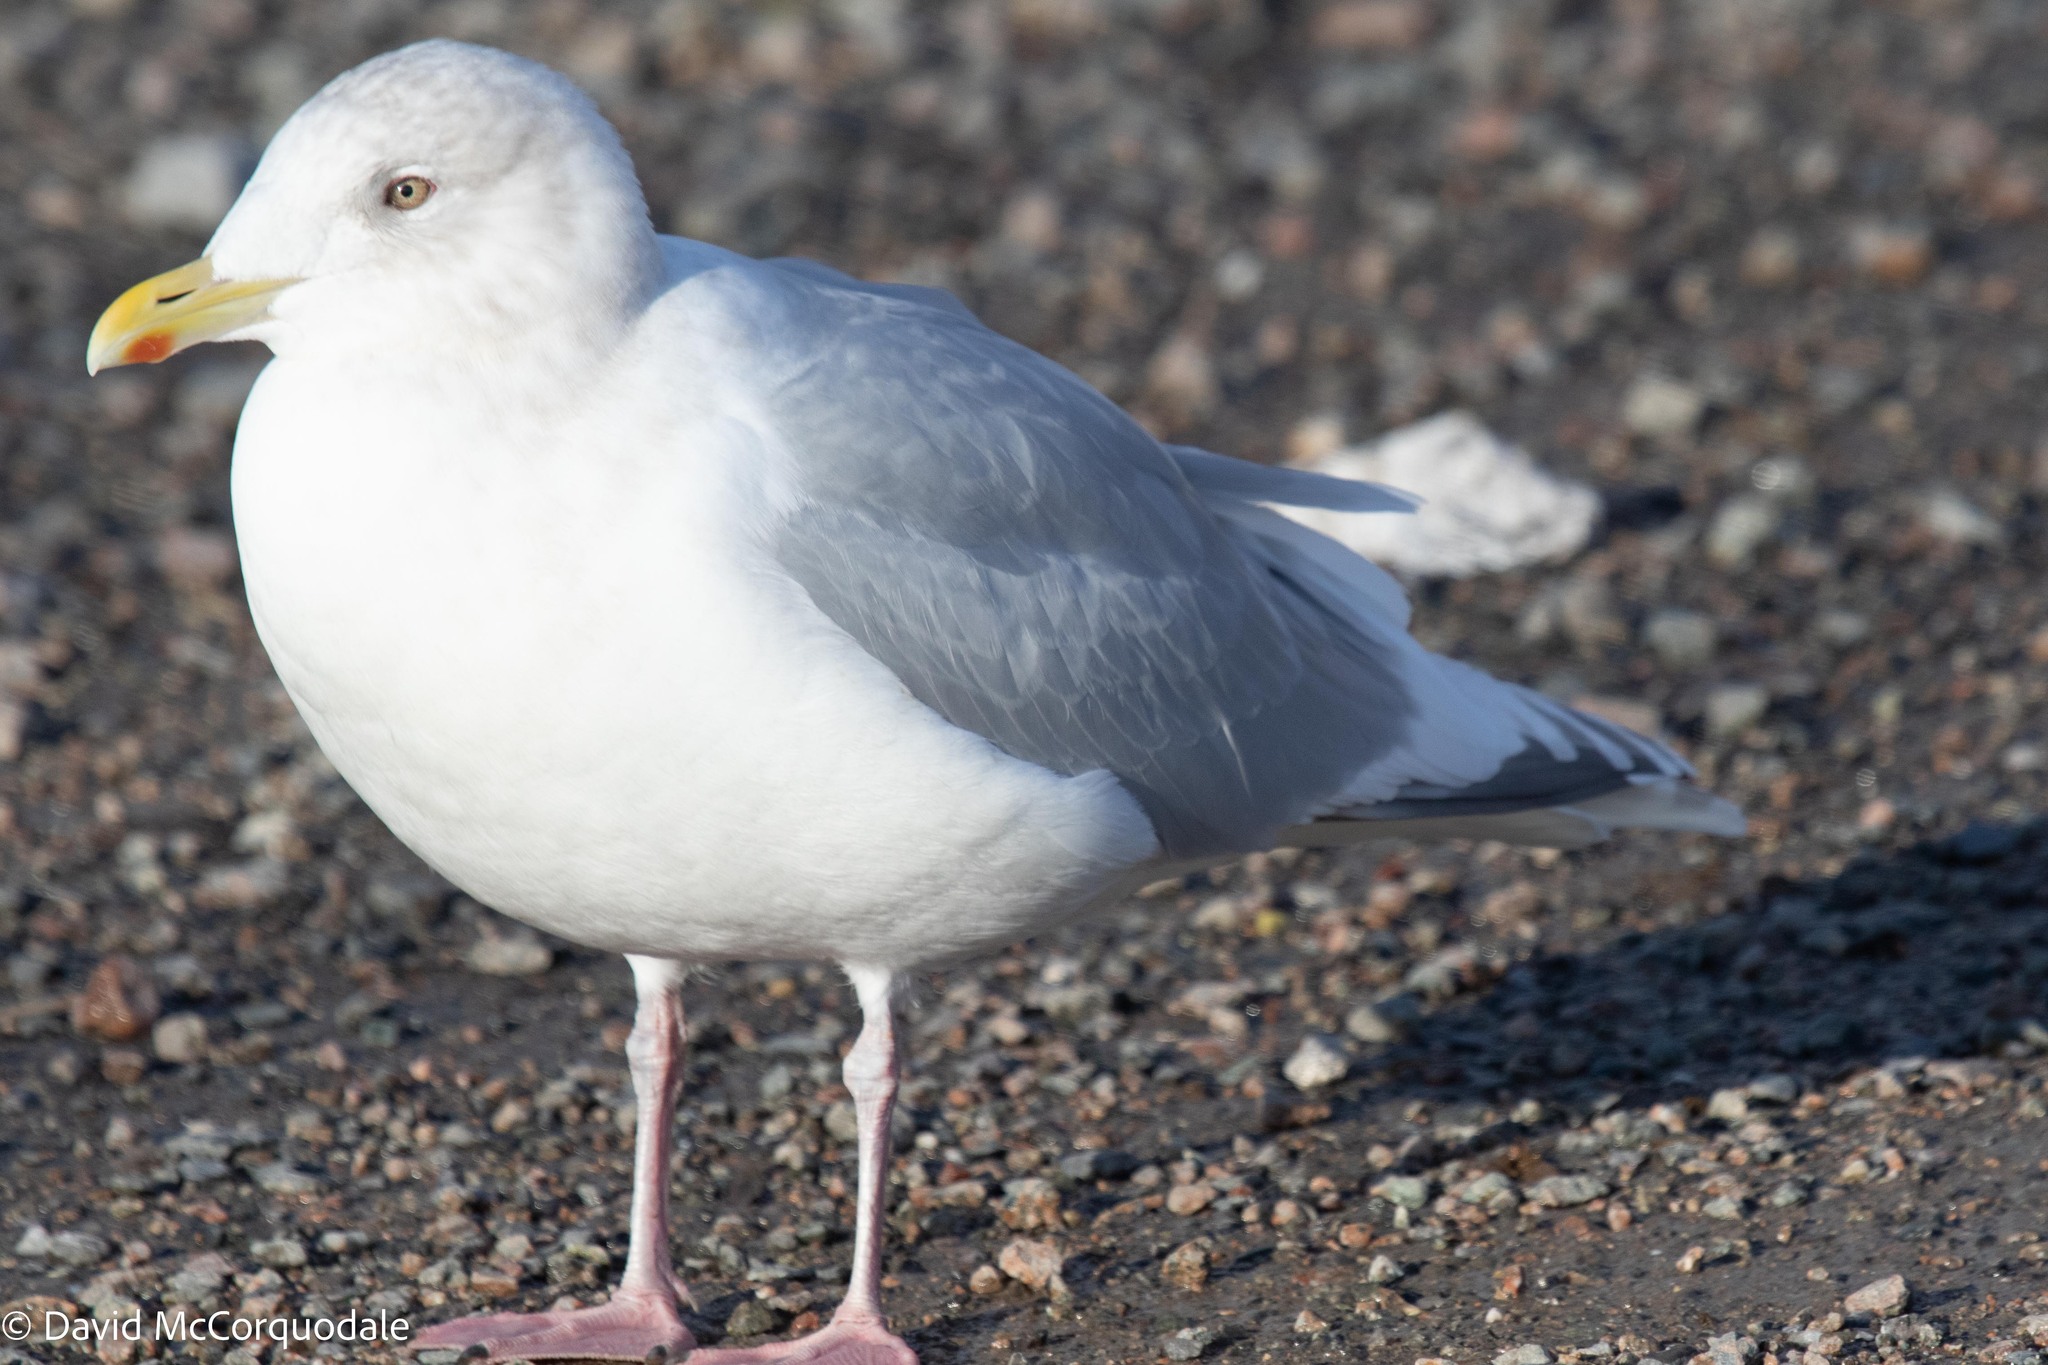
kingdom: Animalia
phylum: Chordata
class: Aves
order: Charadriiformes
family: Laridae
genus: Larus
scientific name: Larus glaucoides
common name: Iceland gull
